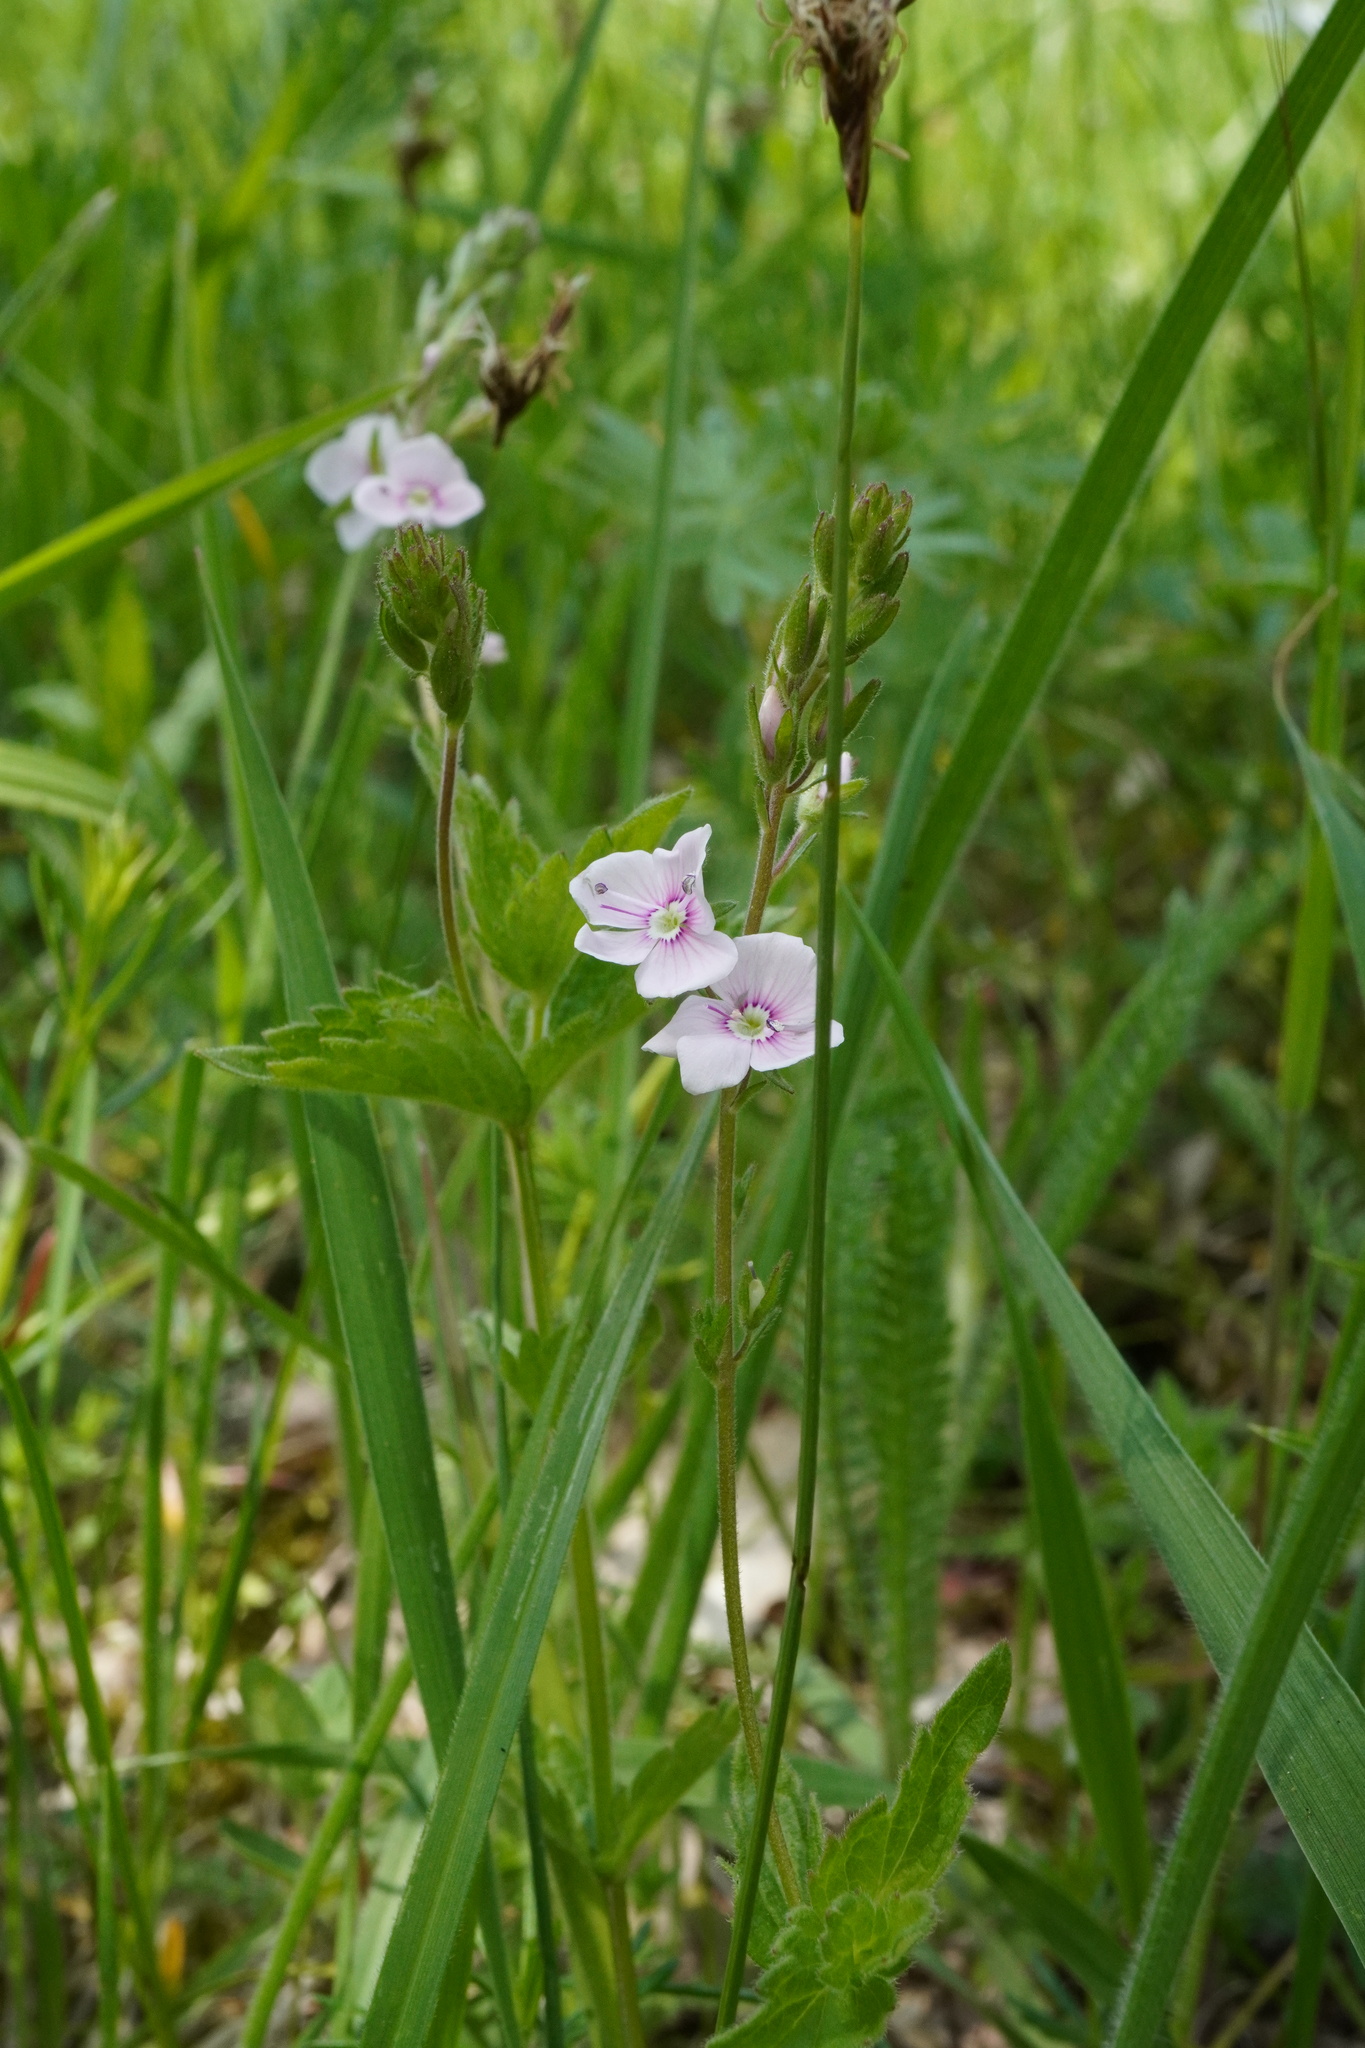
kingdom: Plantae
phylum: Tracheophyta
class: Magnoliopsida
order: Lamiales
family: Plantaginaceae
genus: Veronica
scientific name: Veronica chamaedrys
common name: Germander speedwell
